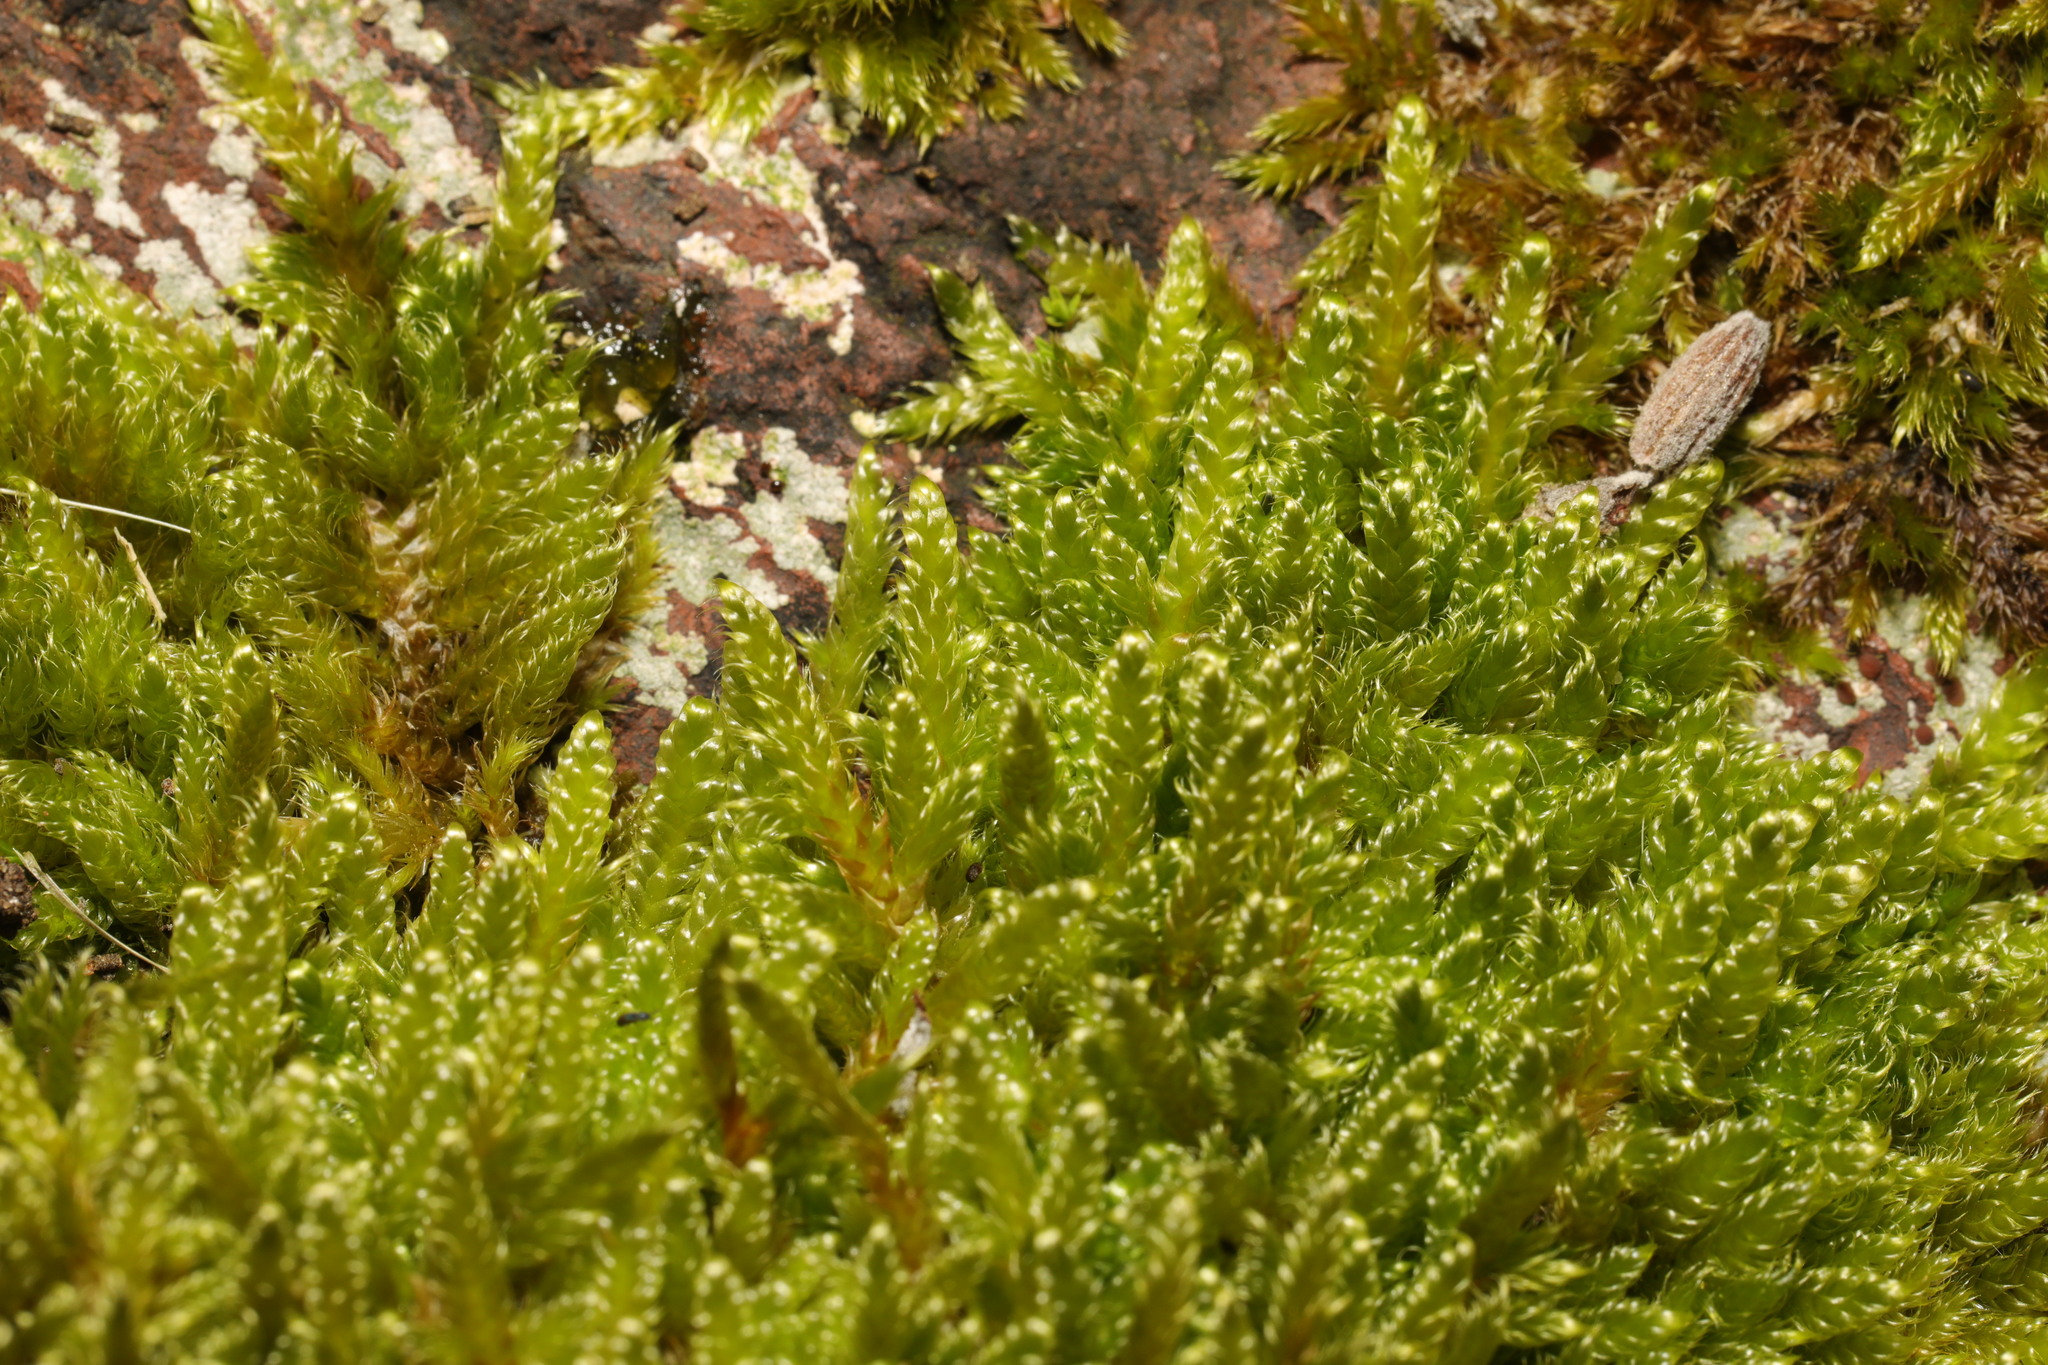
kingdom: Plantae
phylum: Bryophyta
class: Bryopsida
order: Hypnales
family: Hypnaceae
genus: Hypnum
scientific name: Hypnum cupressiforme
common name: Cypress-leaved plait-moss
